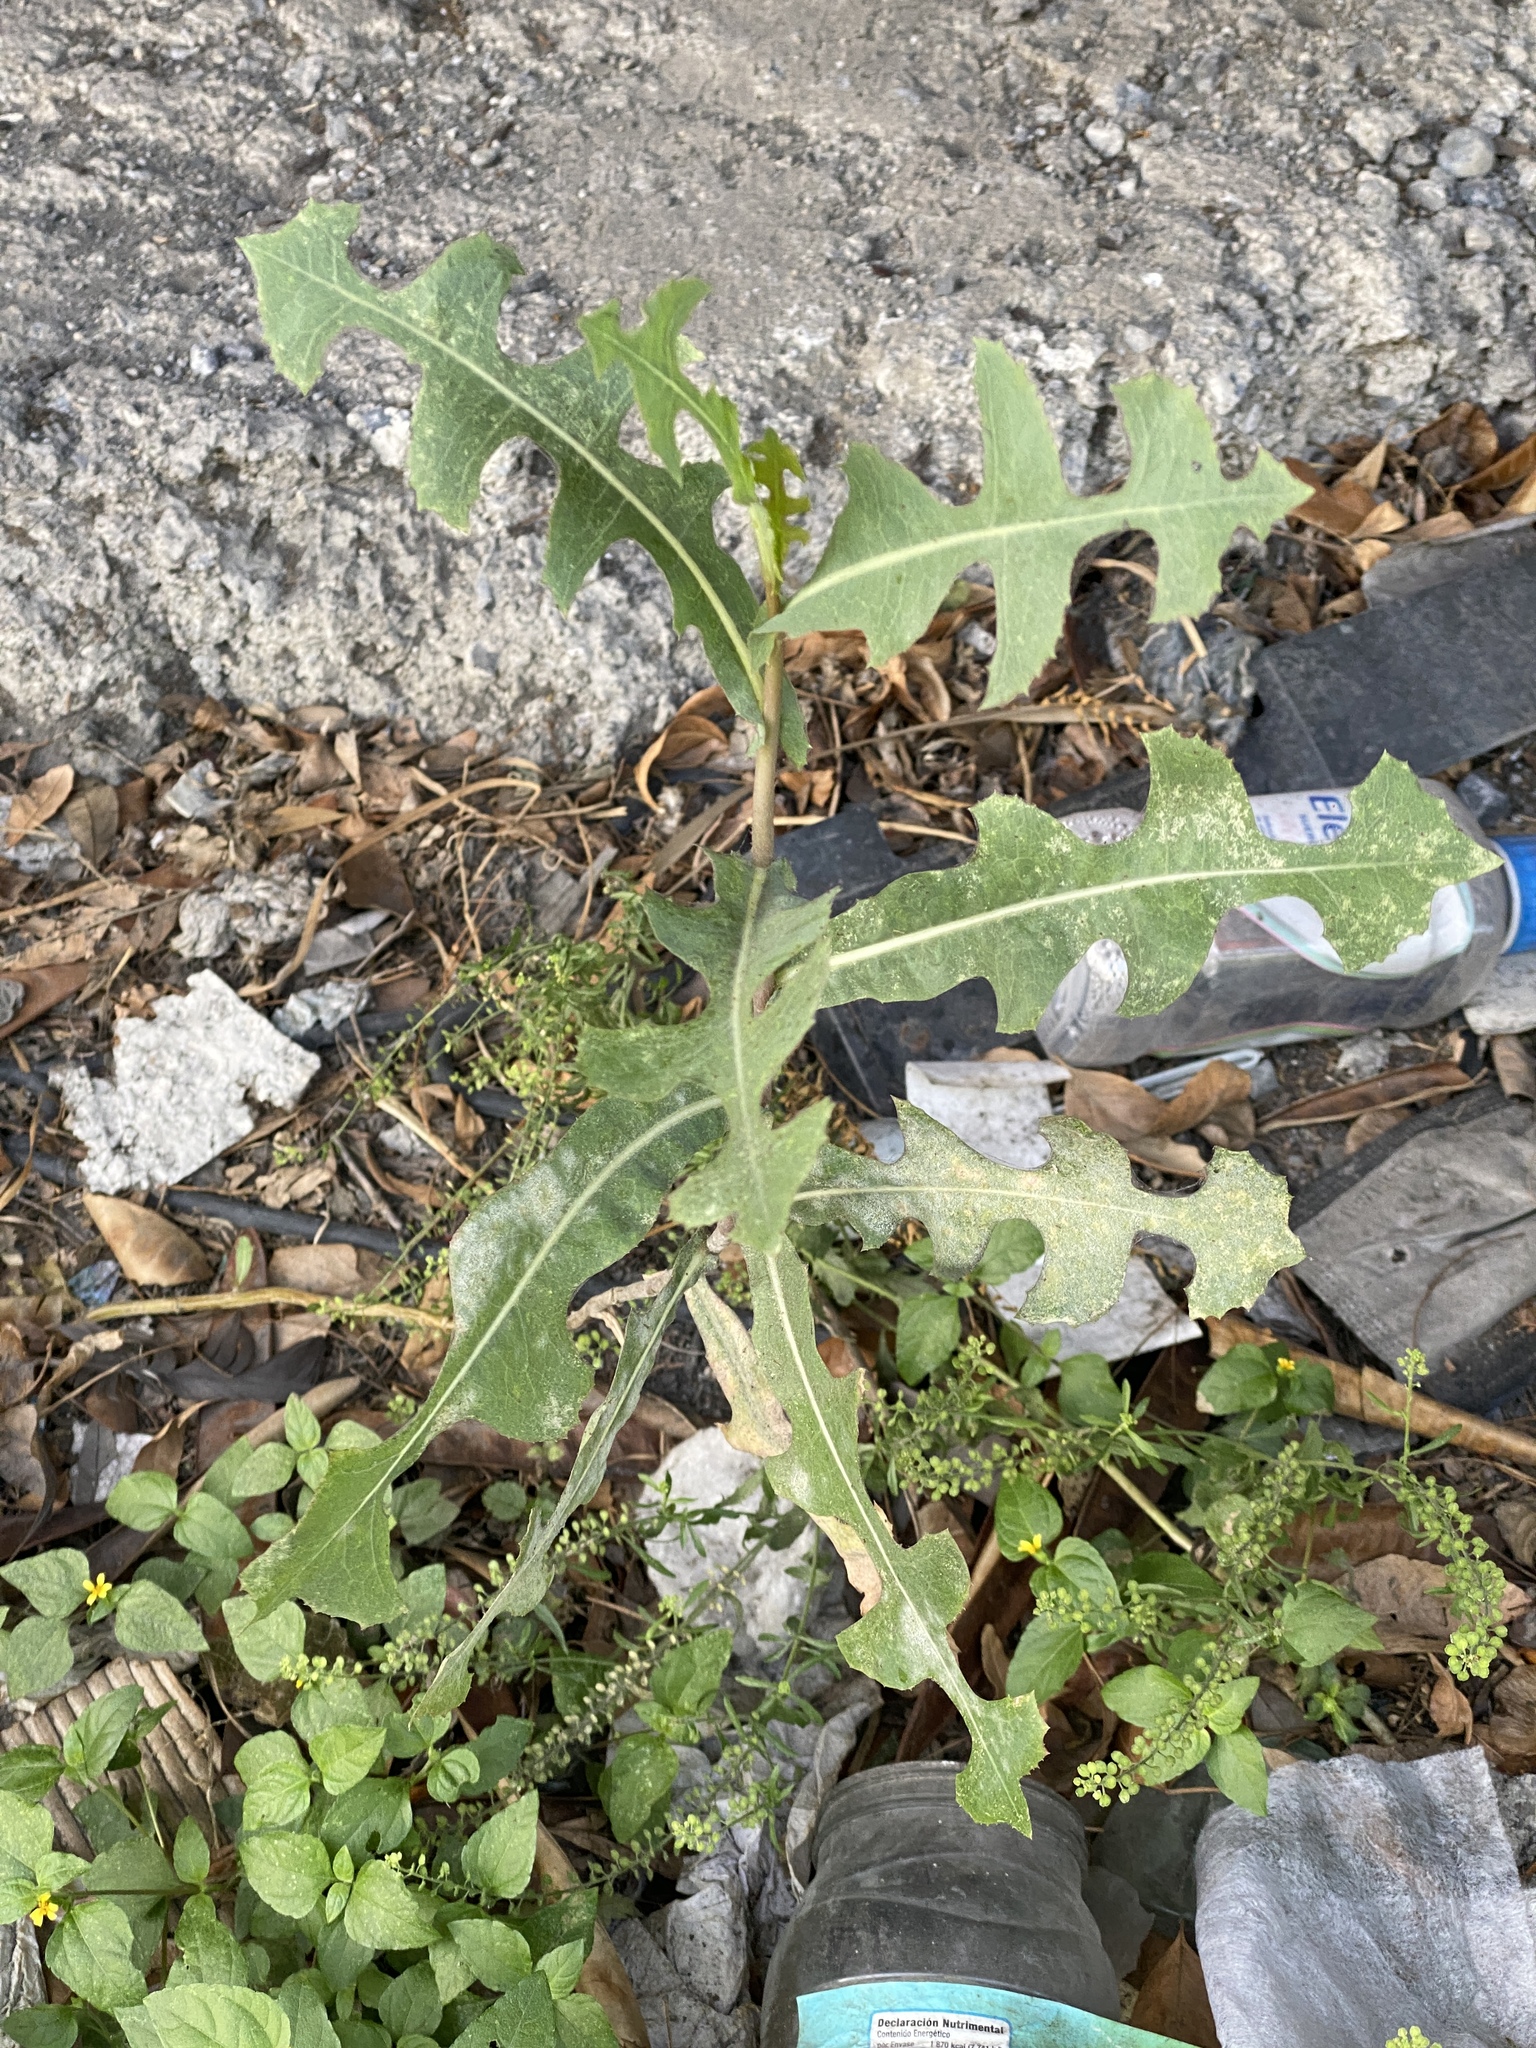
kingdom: Plantae
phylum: Tracheophyta
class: Magnoliopsida
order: Asterales
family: Asteraceae
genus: Lactuca
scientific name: Lactuca serriola
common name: Prickly lettuce
